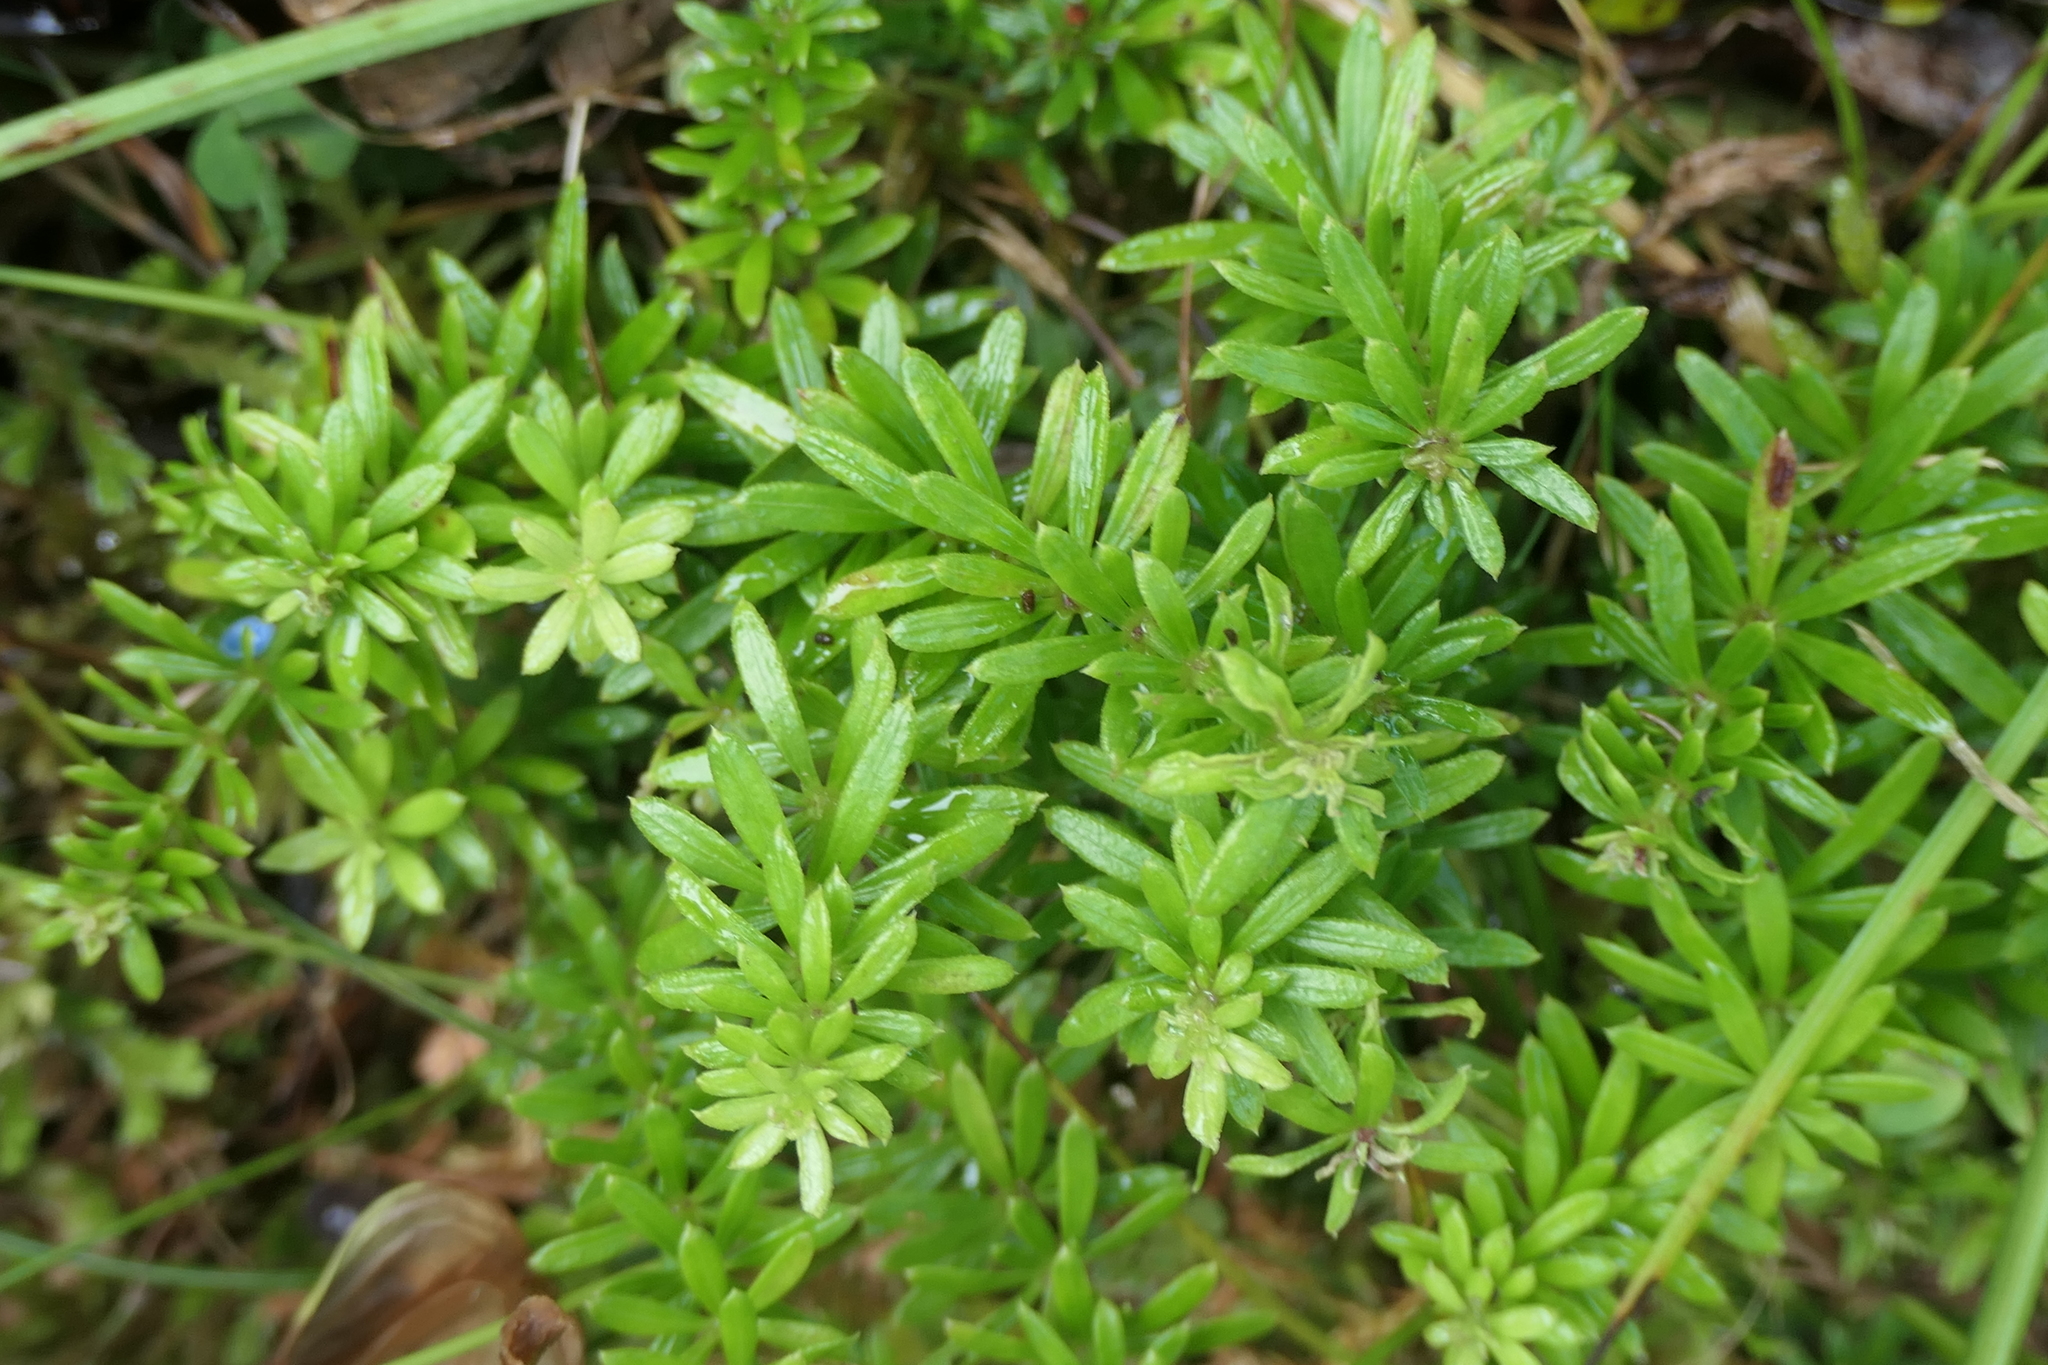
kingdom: Plantae
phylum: Tracheophyta
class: Magnoliopsida
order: Gentianales
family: Rubiaceae
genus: Rubia
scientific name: Rubia agostinhoi
